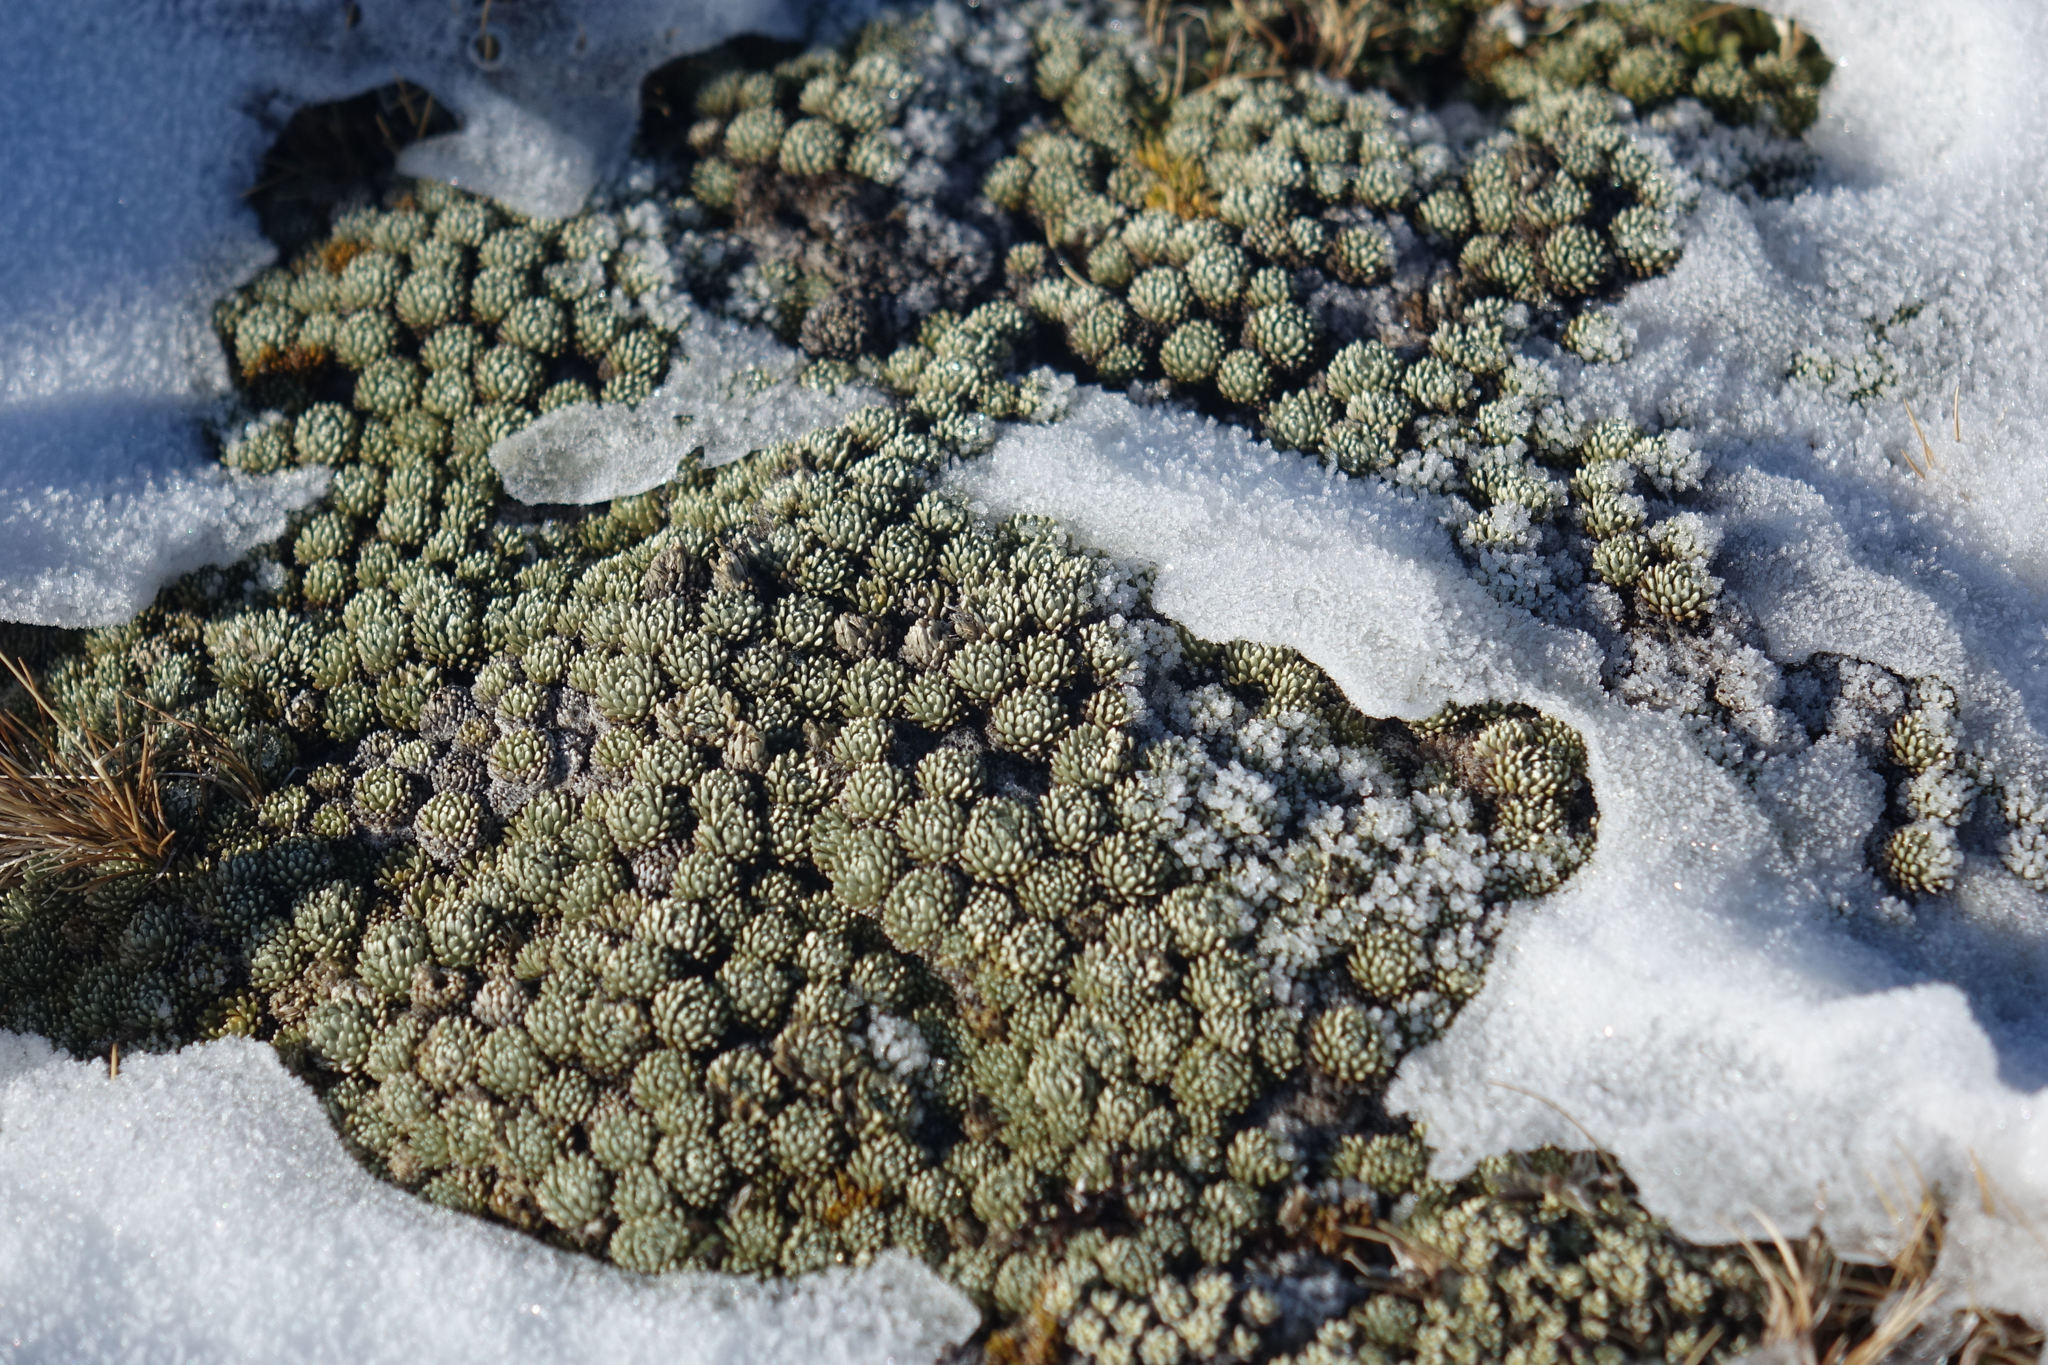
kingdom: Plantae
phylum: Tracheophyta
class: Magnoliopsida
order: Asterales
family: Asteraceae
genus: Celmisia
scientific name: Celmisia argentea
